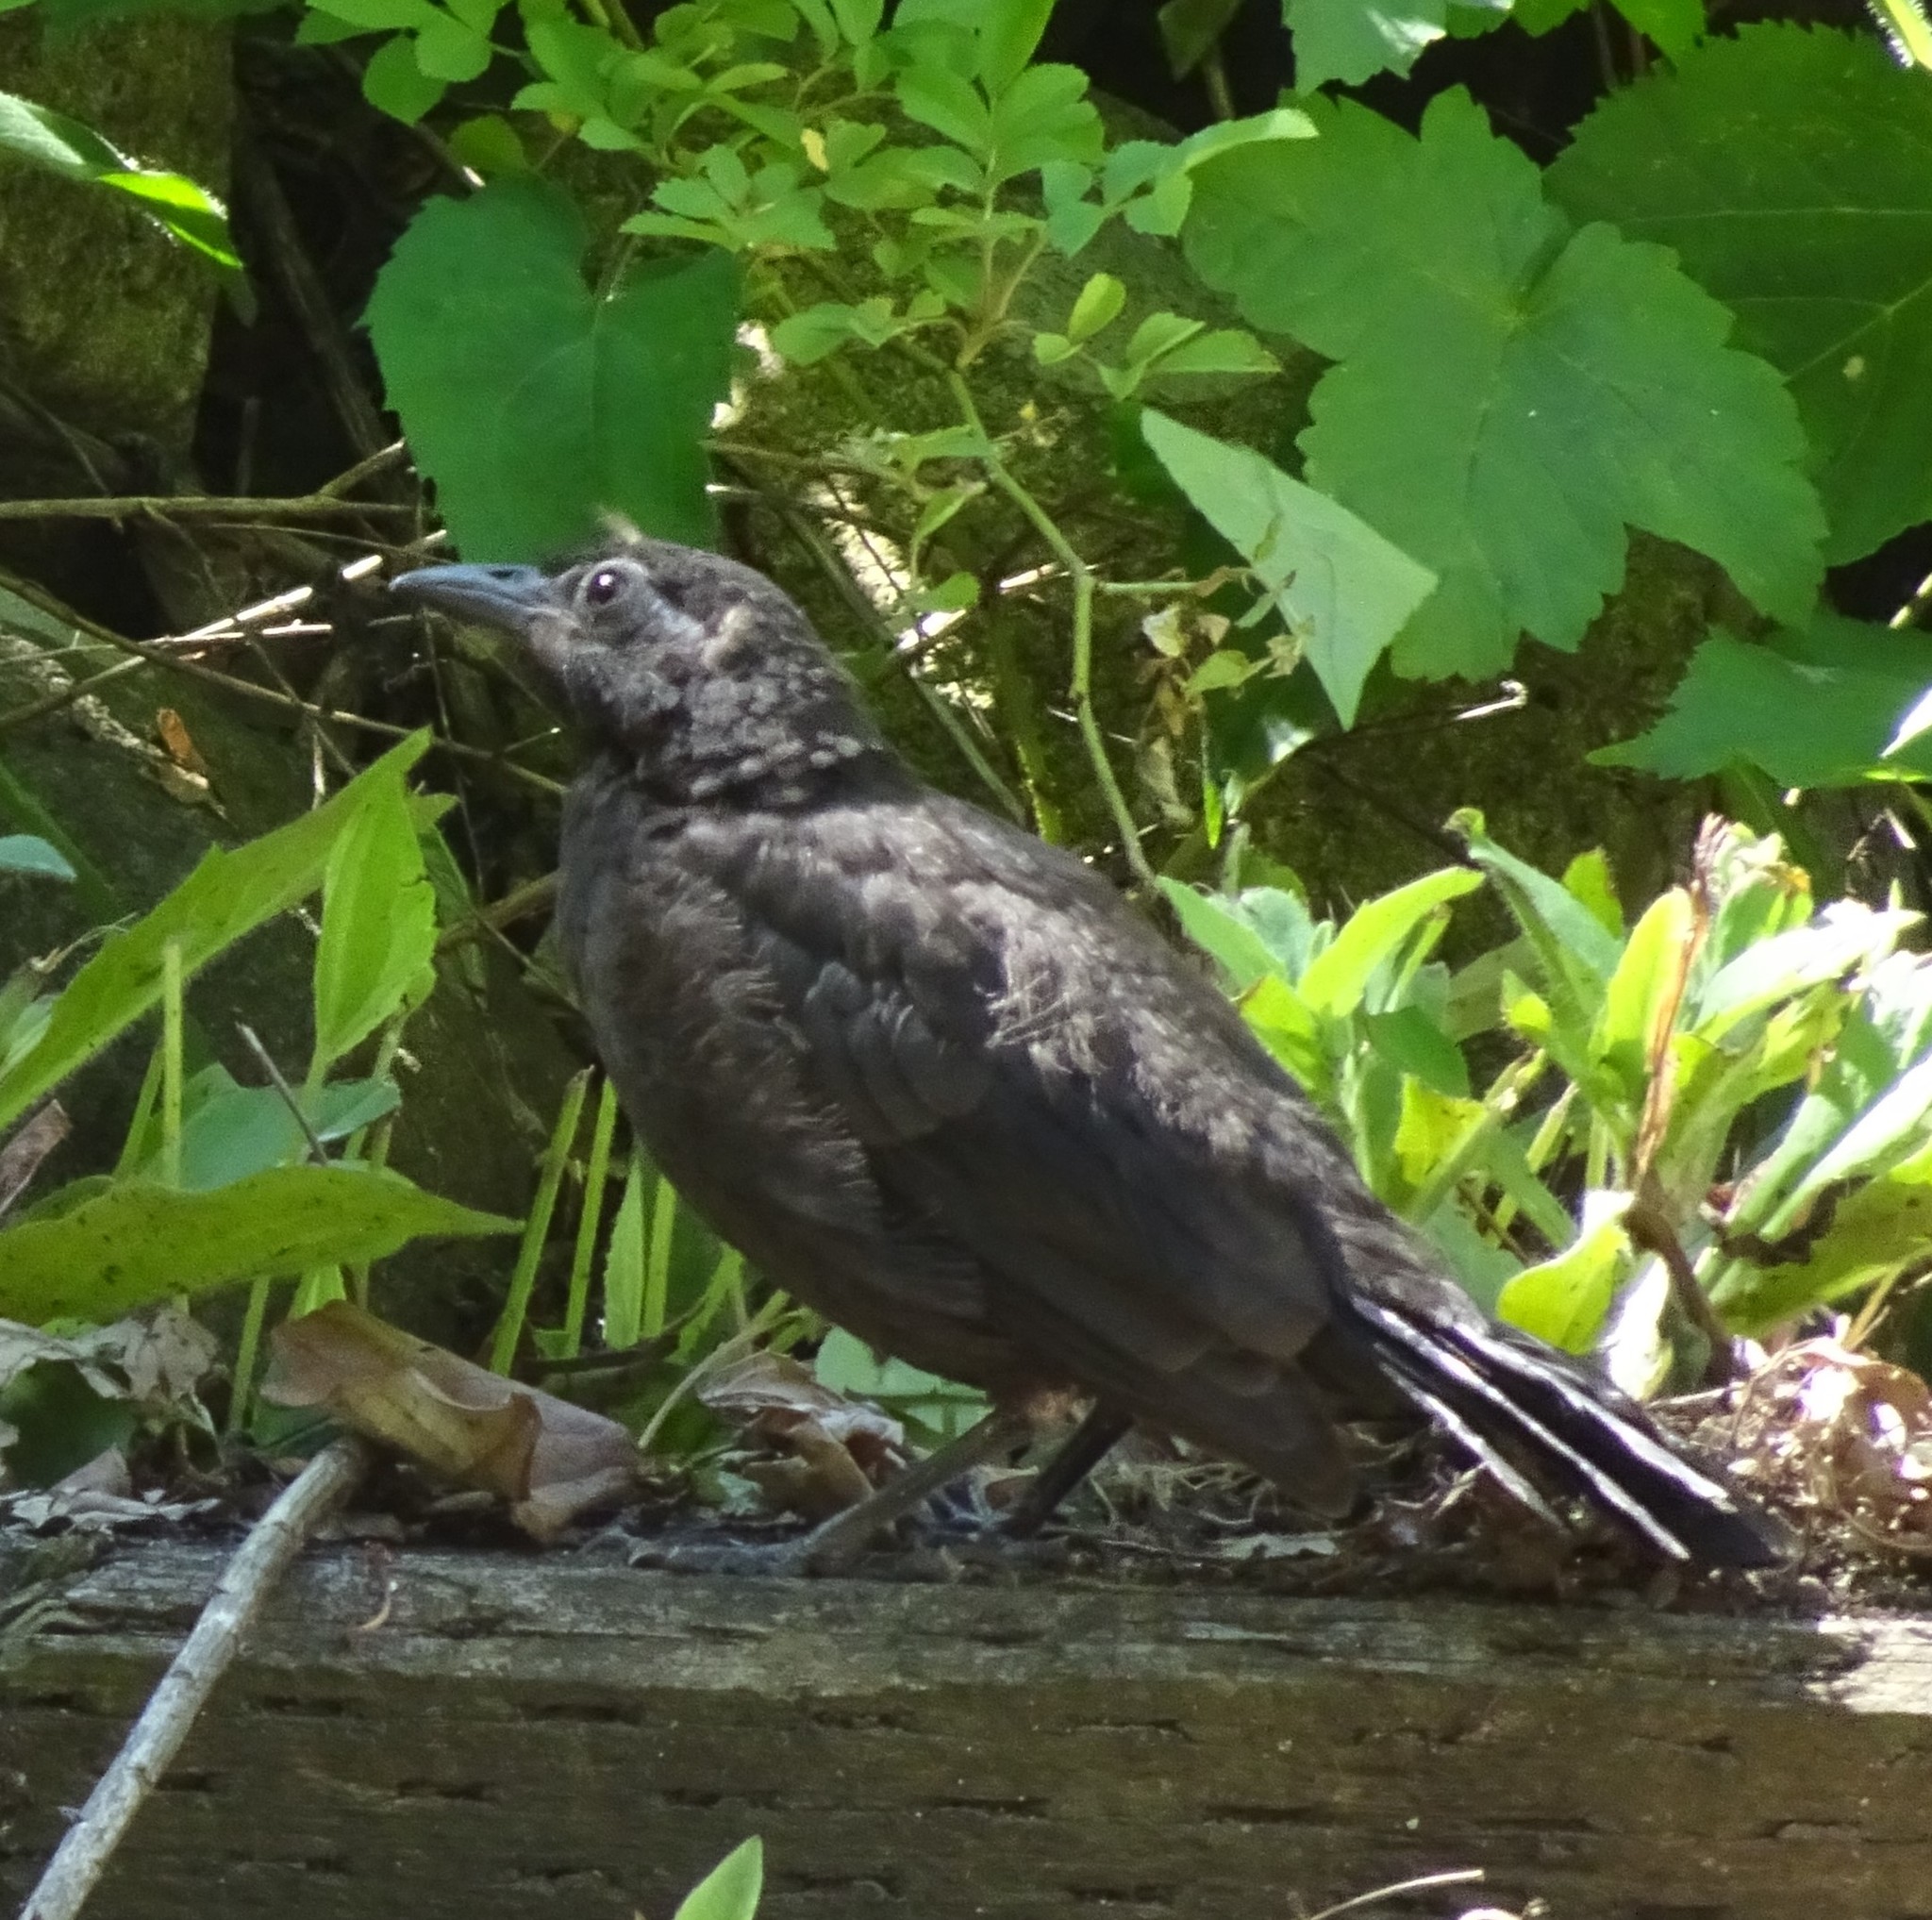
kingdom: Animalia
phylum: Chordata
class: Aves
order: Passeriformes
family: Icteridae
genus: Quiscalus
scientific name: Quiscalus quiscula
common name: Common grackle
